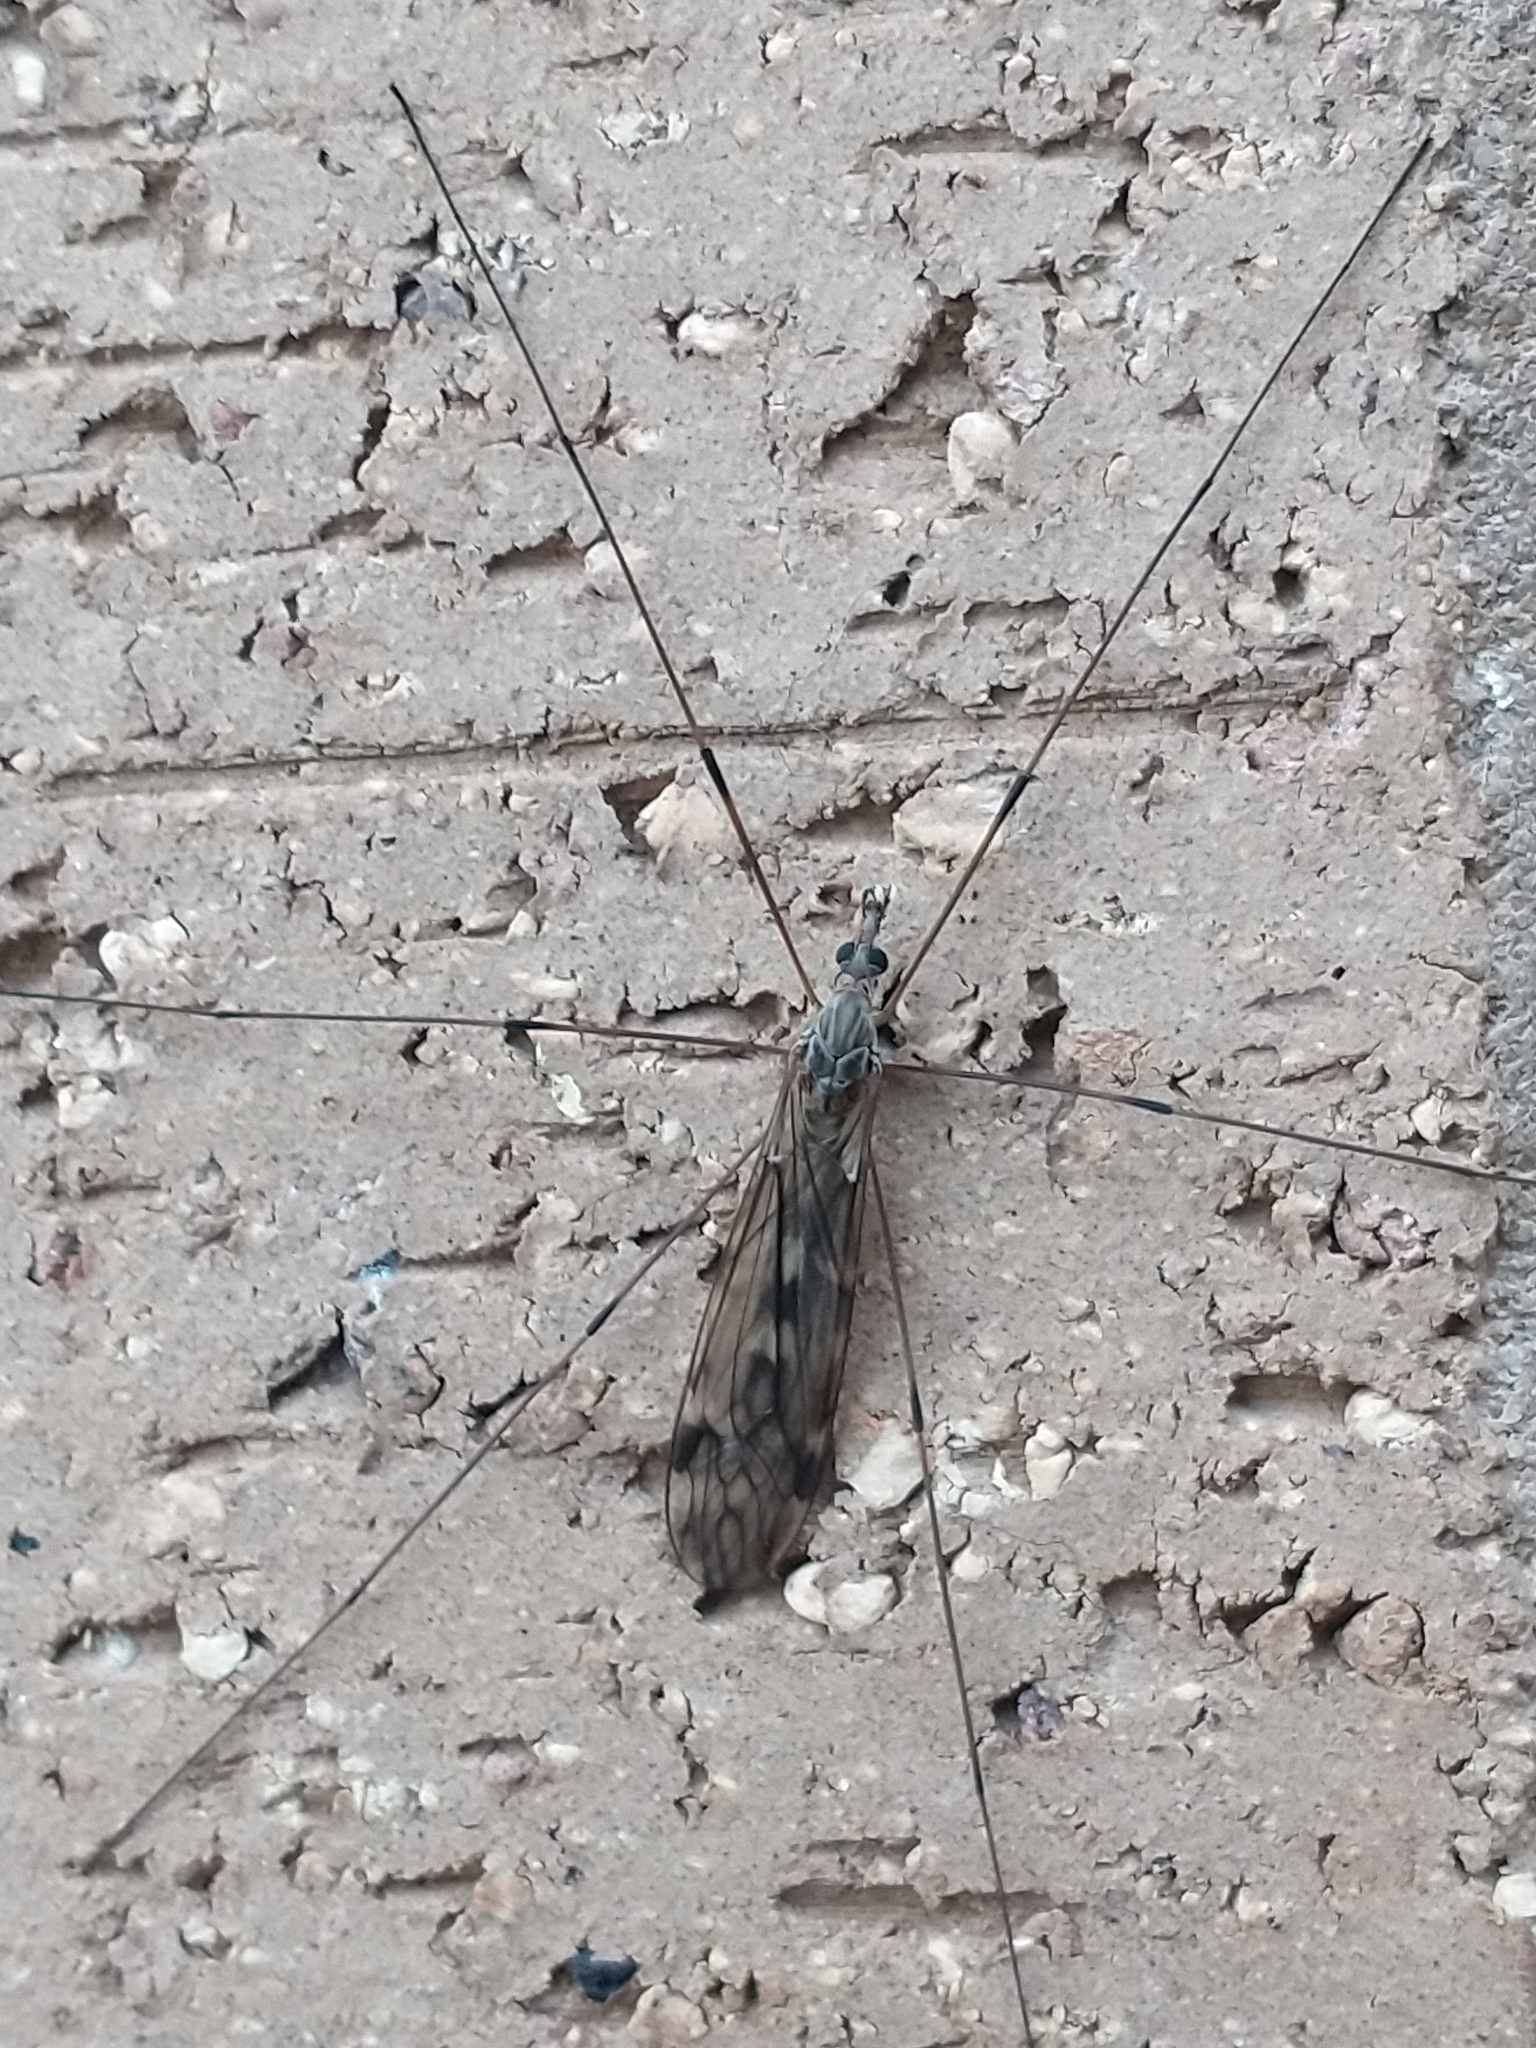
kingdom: Animalia
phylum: Arthropoda
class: Insecta
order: Diptera
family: Tipulidae
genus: Tipula
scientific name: Tipula rufina
